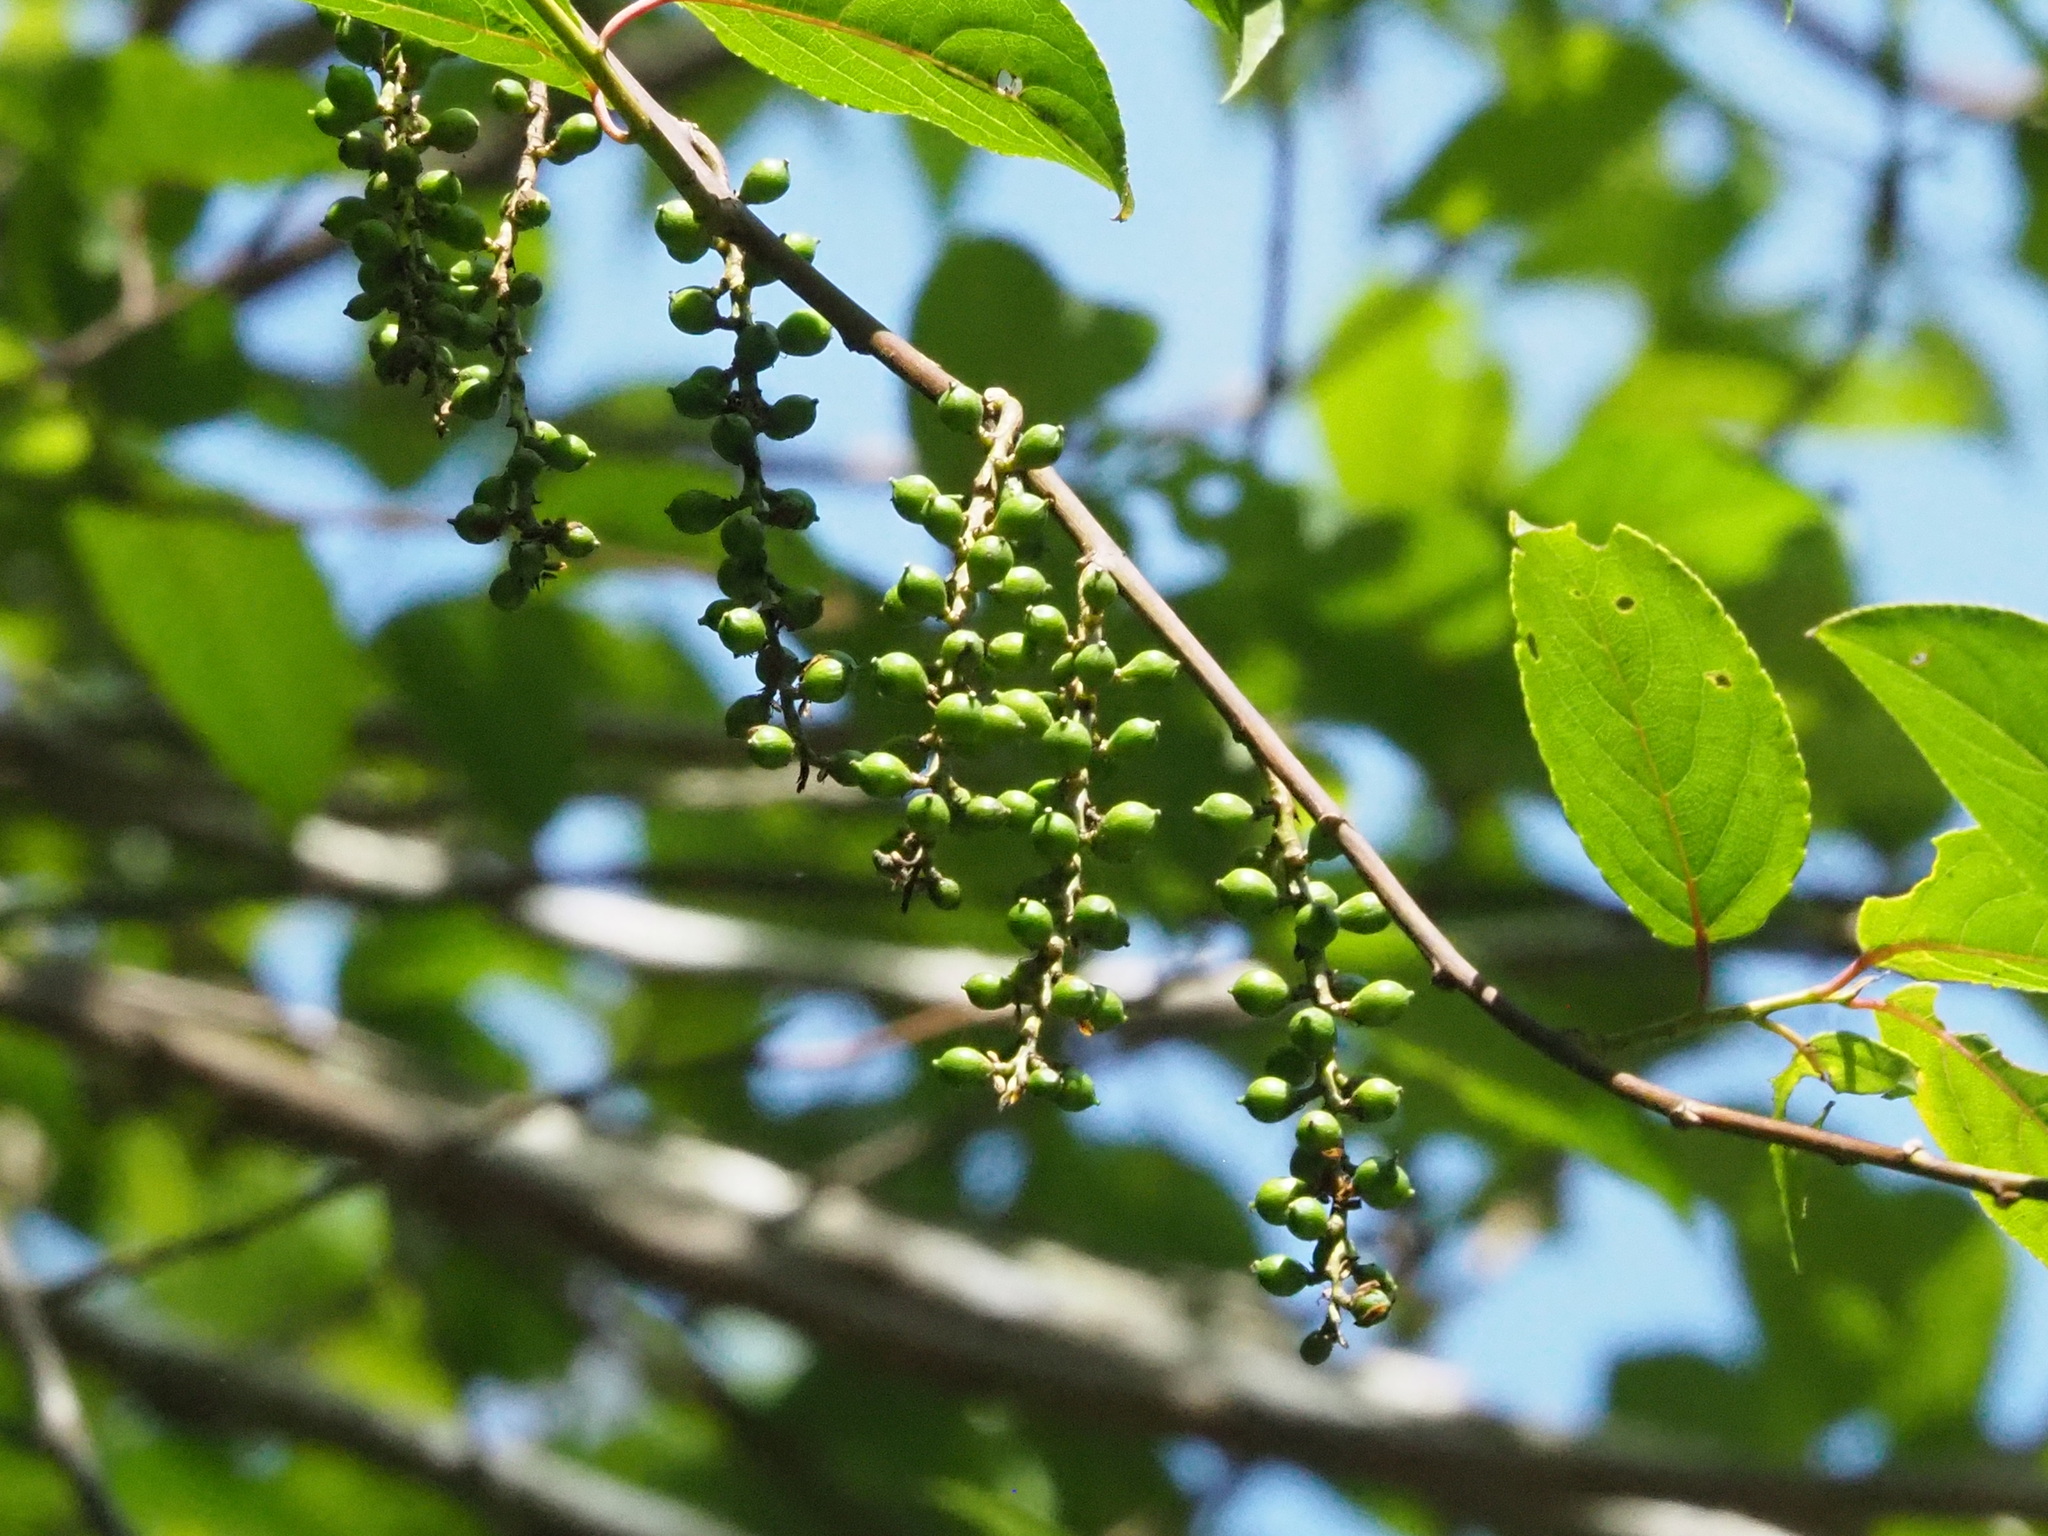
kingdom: Plantae
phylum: Tracheophyta
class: Magnoliopsida
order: Crossosomatales
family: Stachyuraceae
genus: Stachyurus
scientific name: Stachyurus himalaicus
